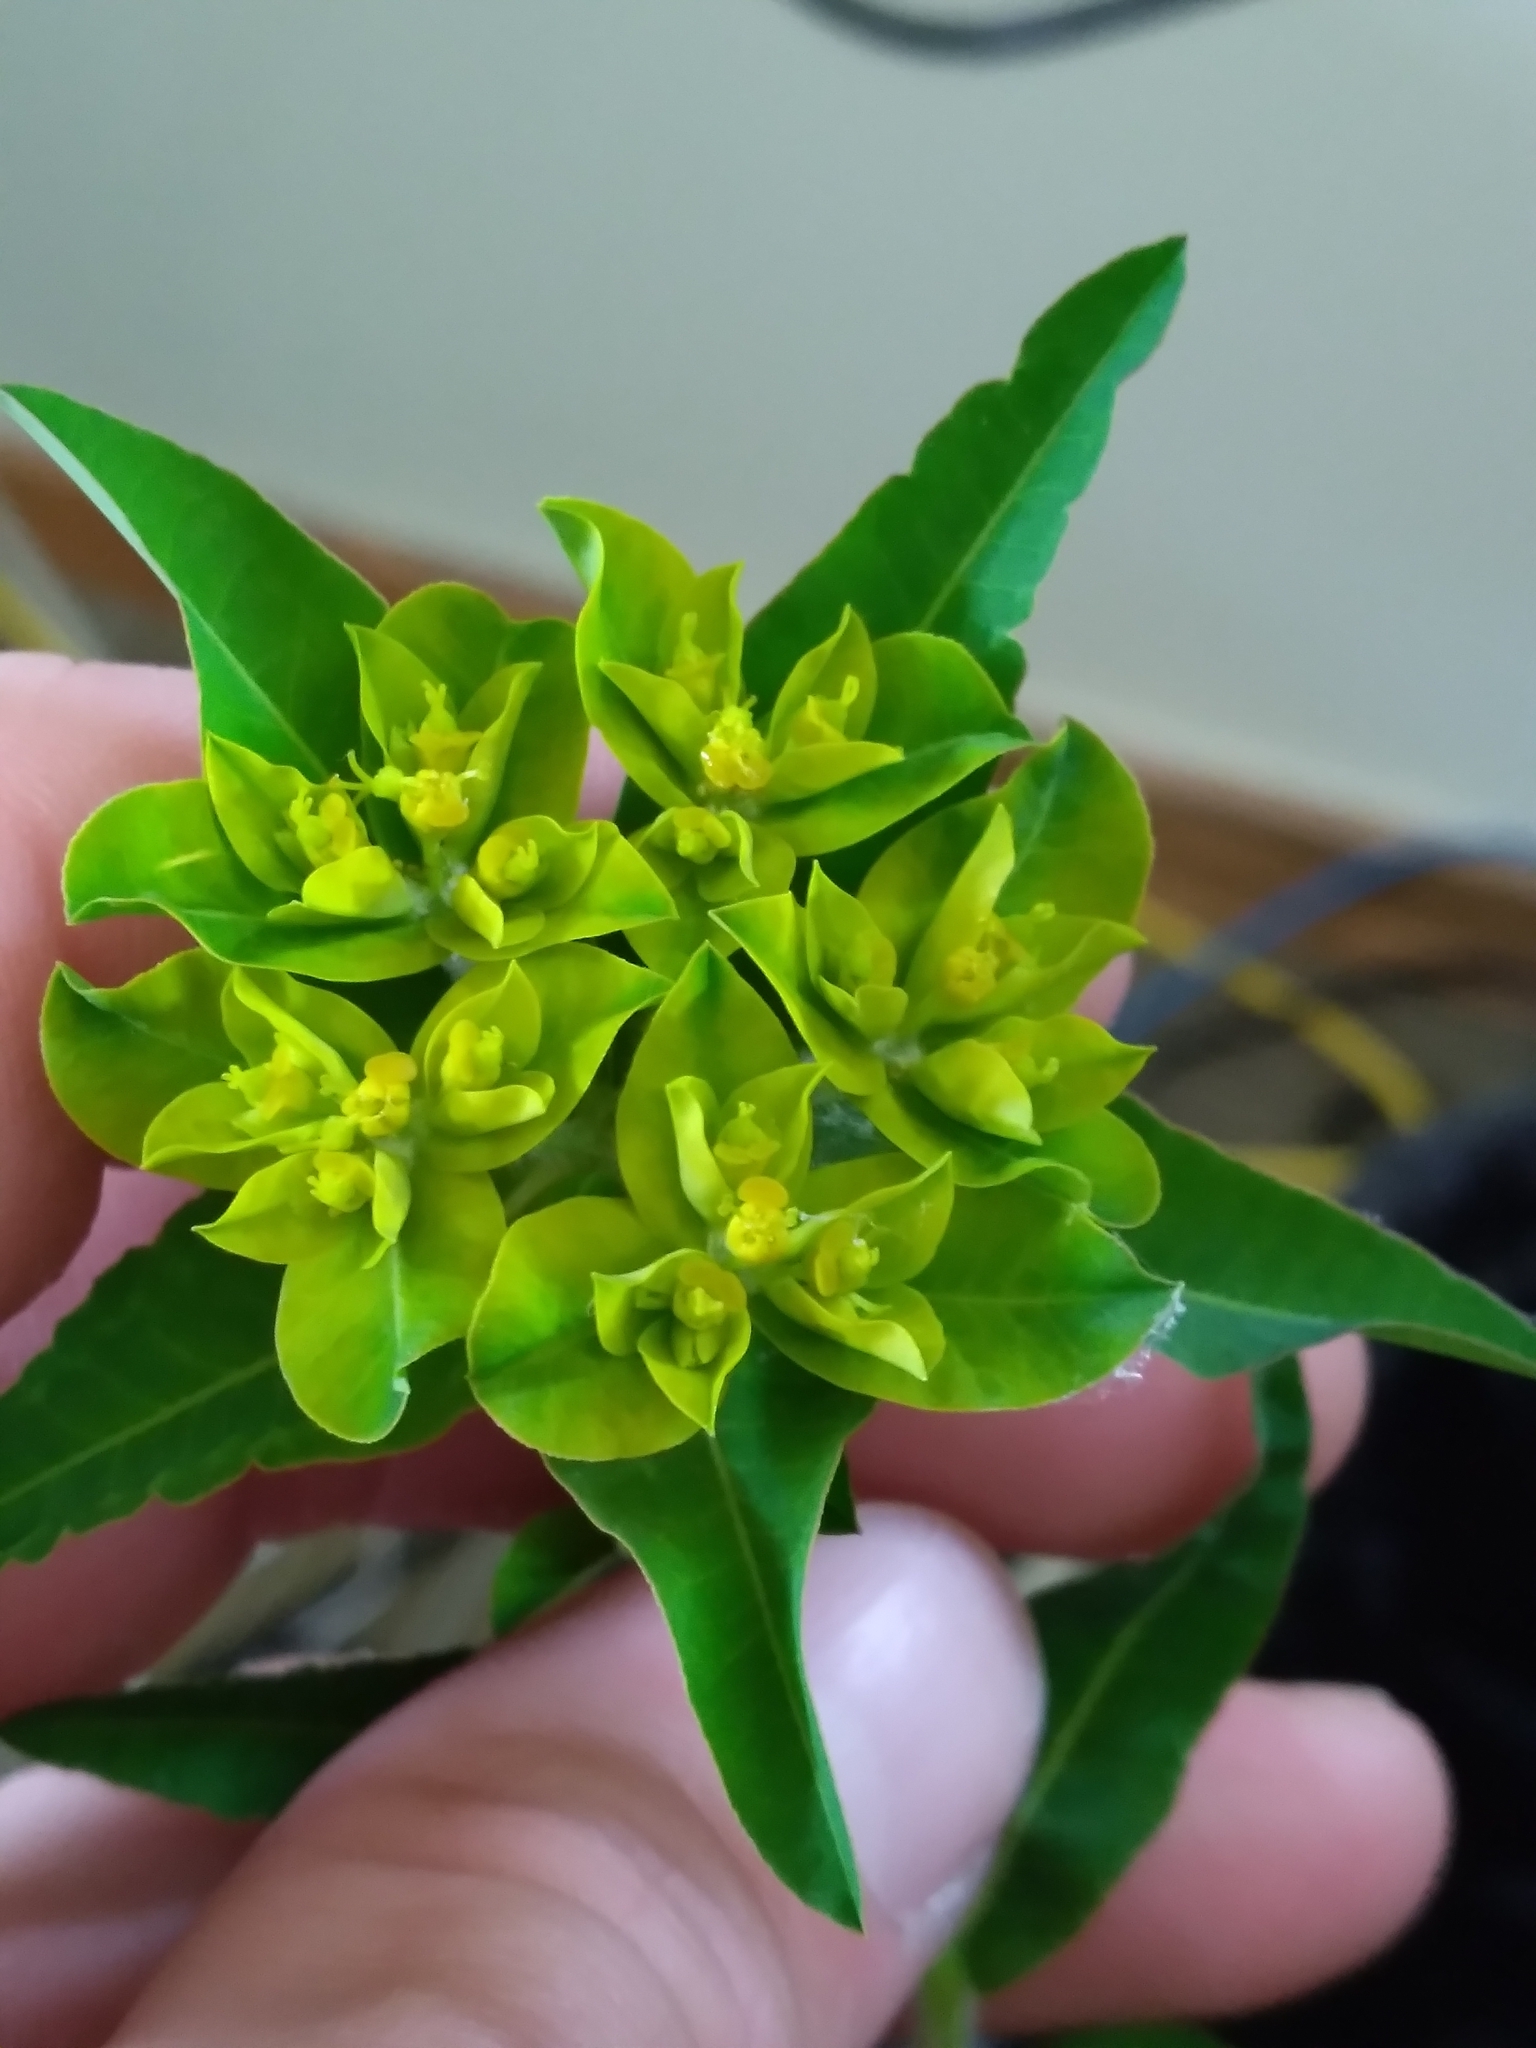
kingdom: Plantae
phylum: Tracheophyta
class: Magnoliopsida
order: Malpighiales
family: Euphorbiaceae
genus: Euphorbia
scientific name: Euphorbia oblongata
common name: Balkan spurge
